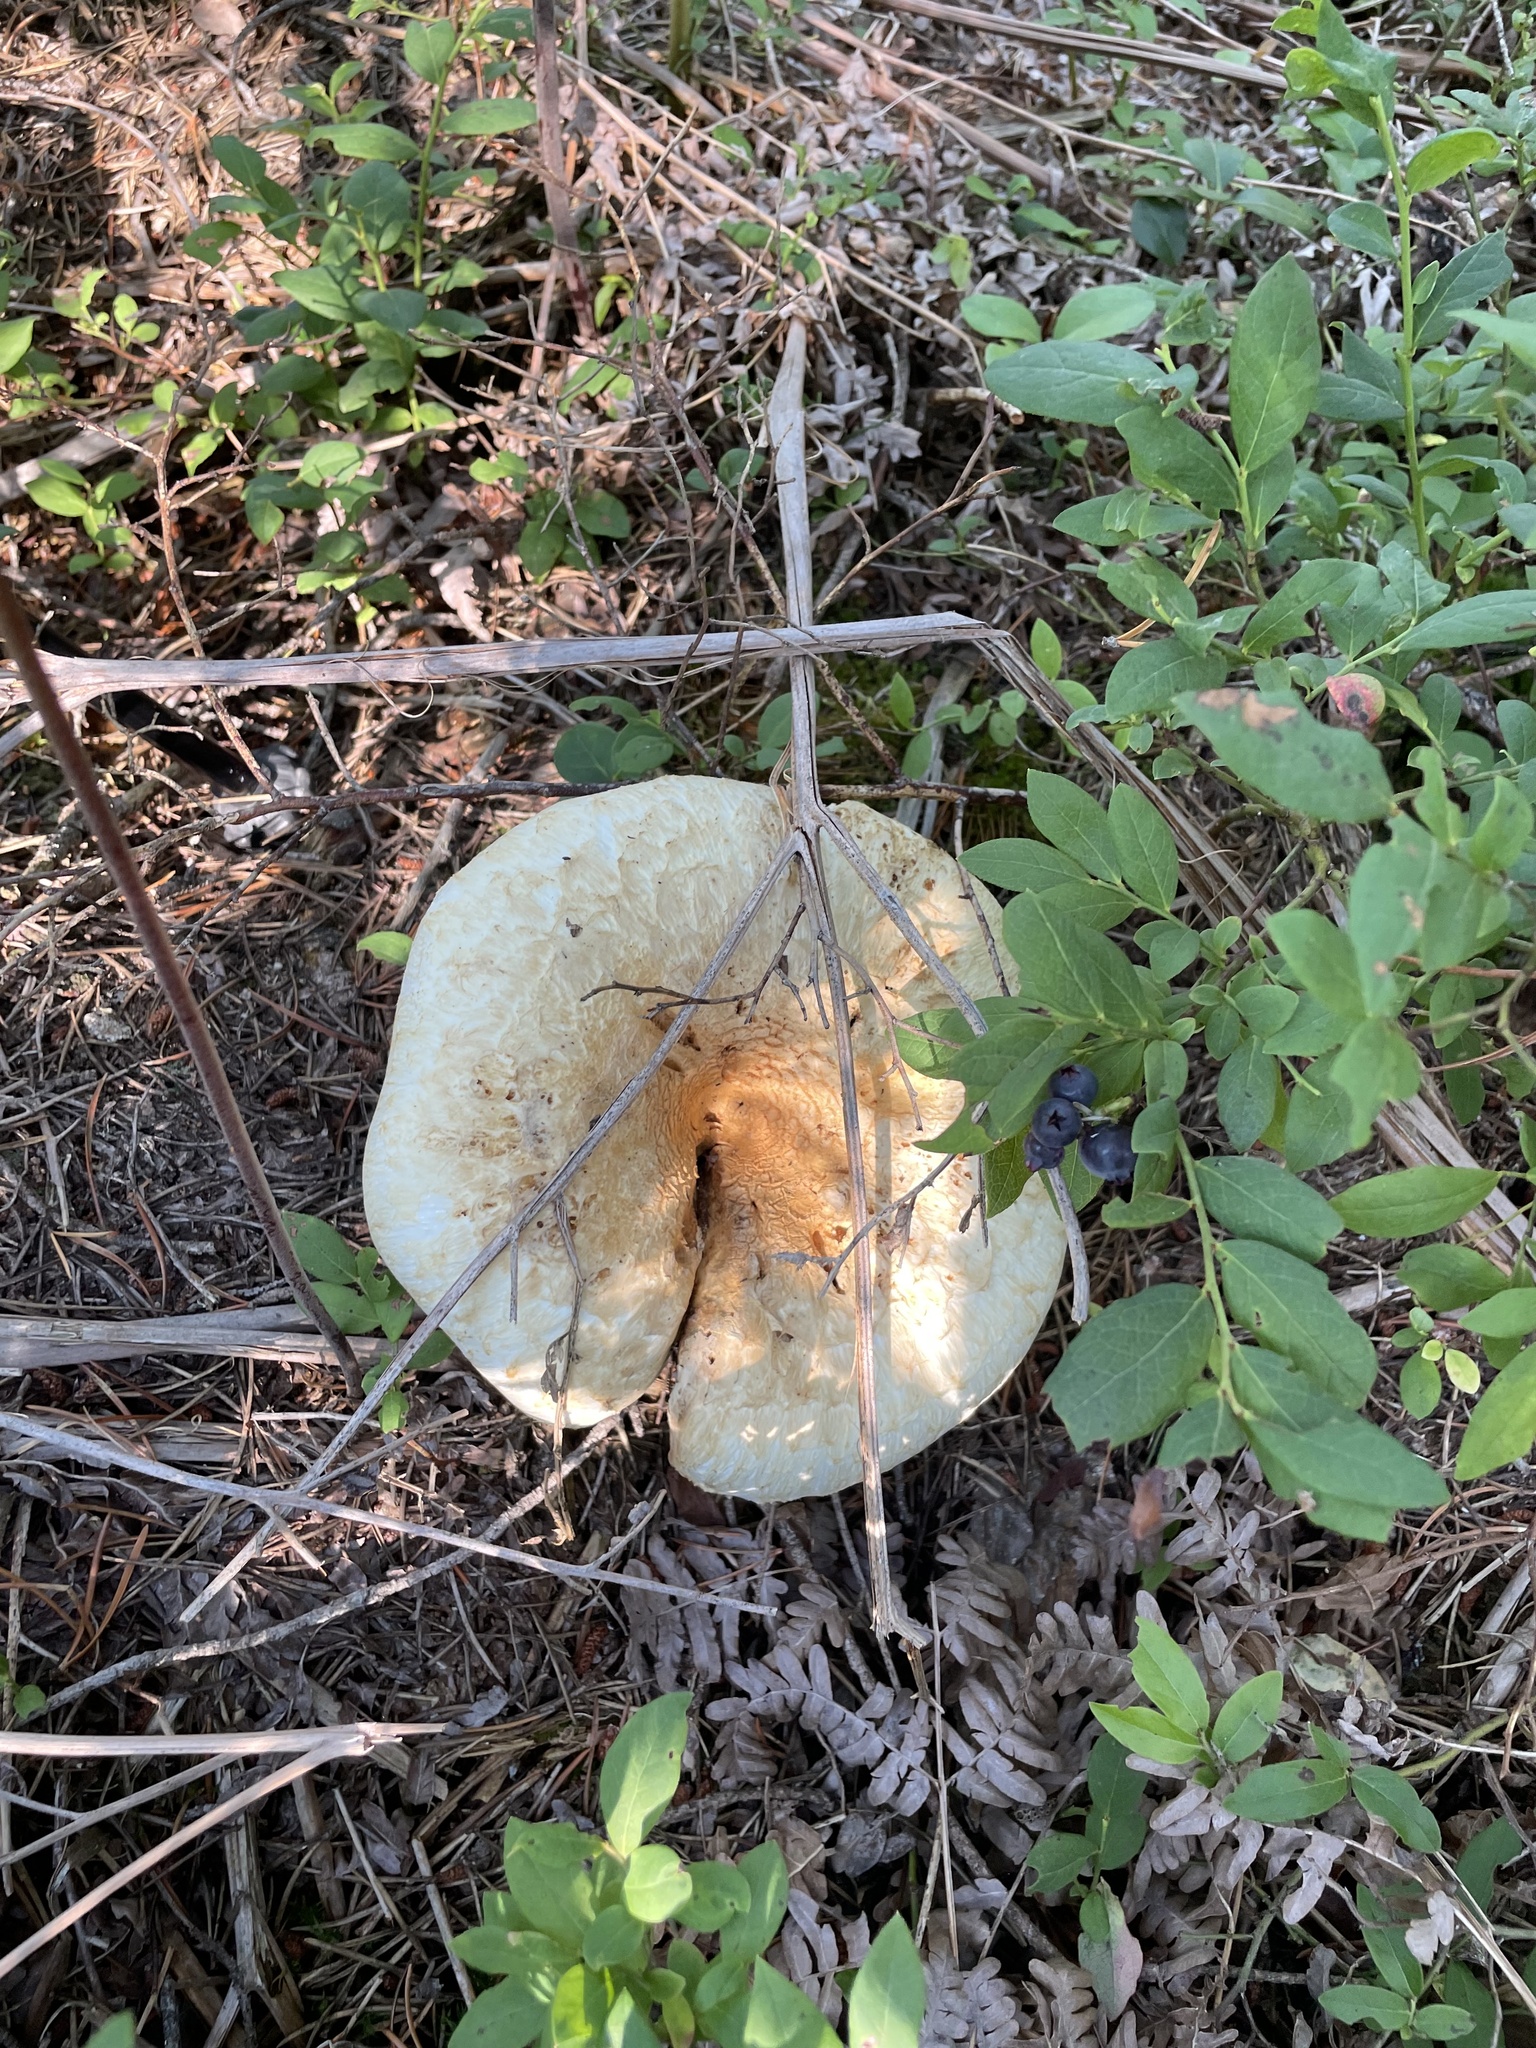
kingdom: Fungi
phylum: Basidiomycota
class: Agaricomycetes
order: Russulales
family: Russulaceae
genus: Lactifluus
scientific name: Lactifluus
